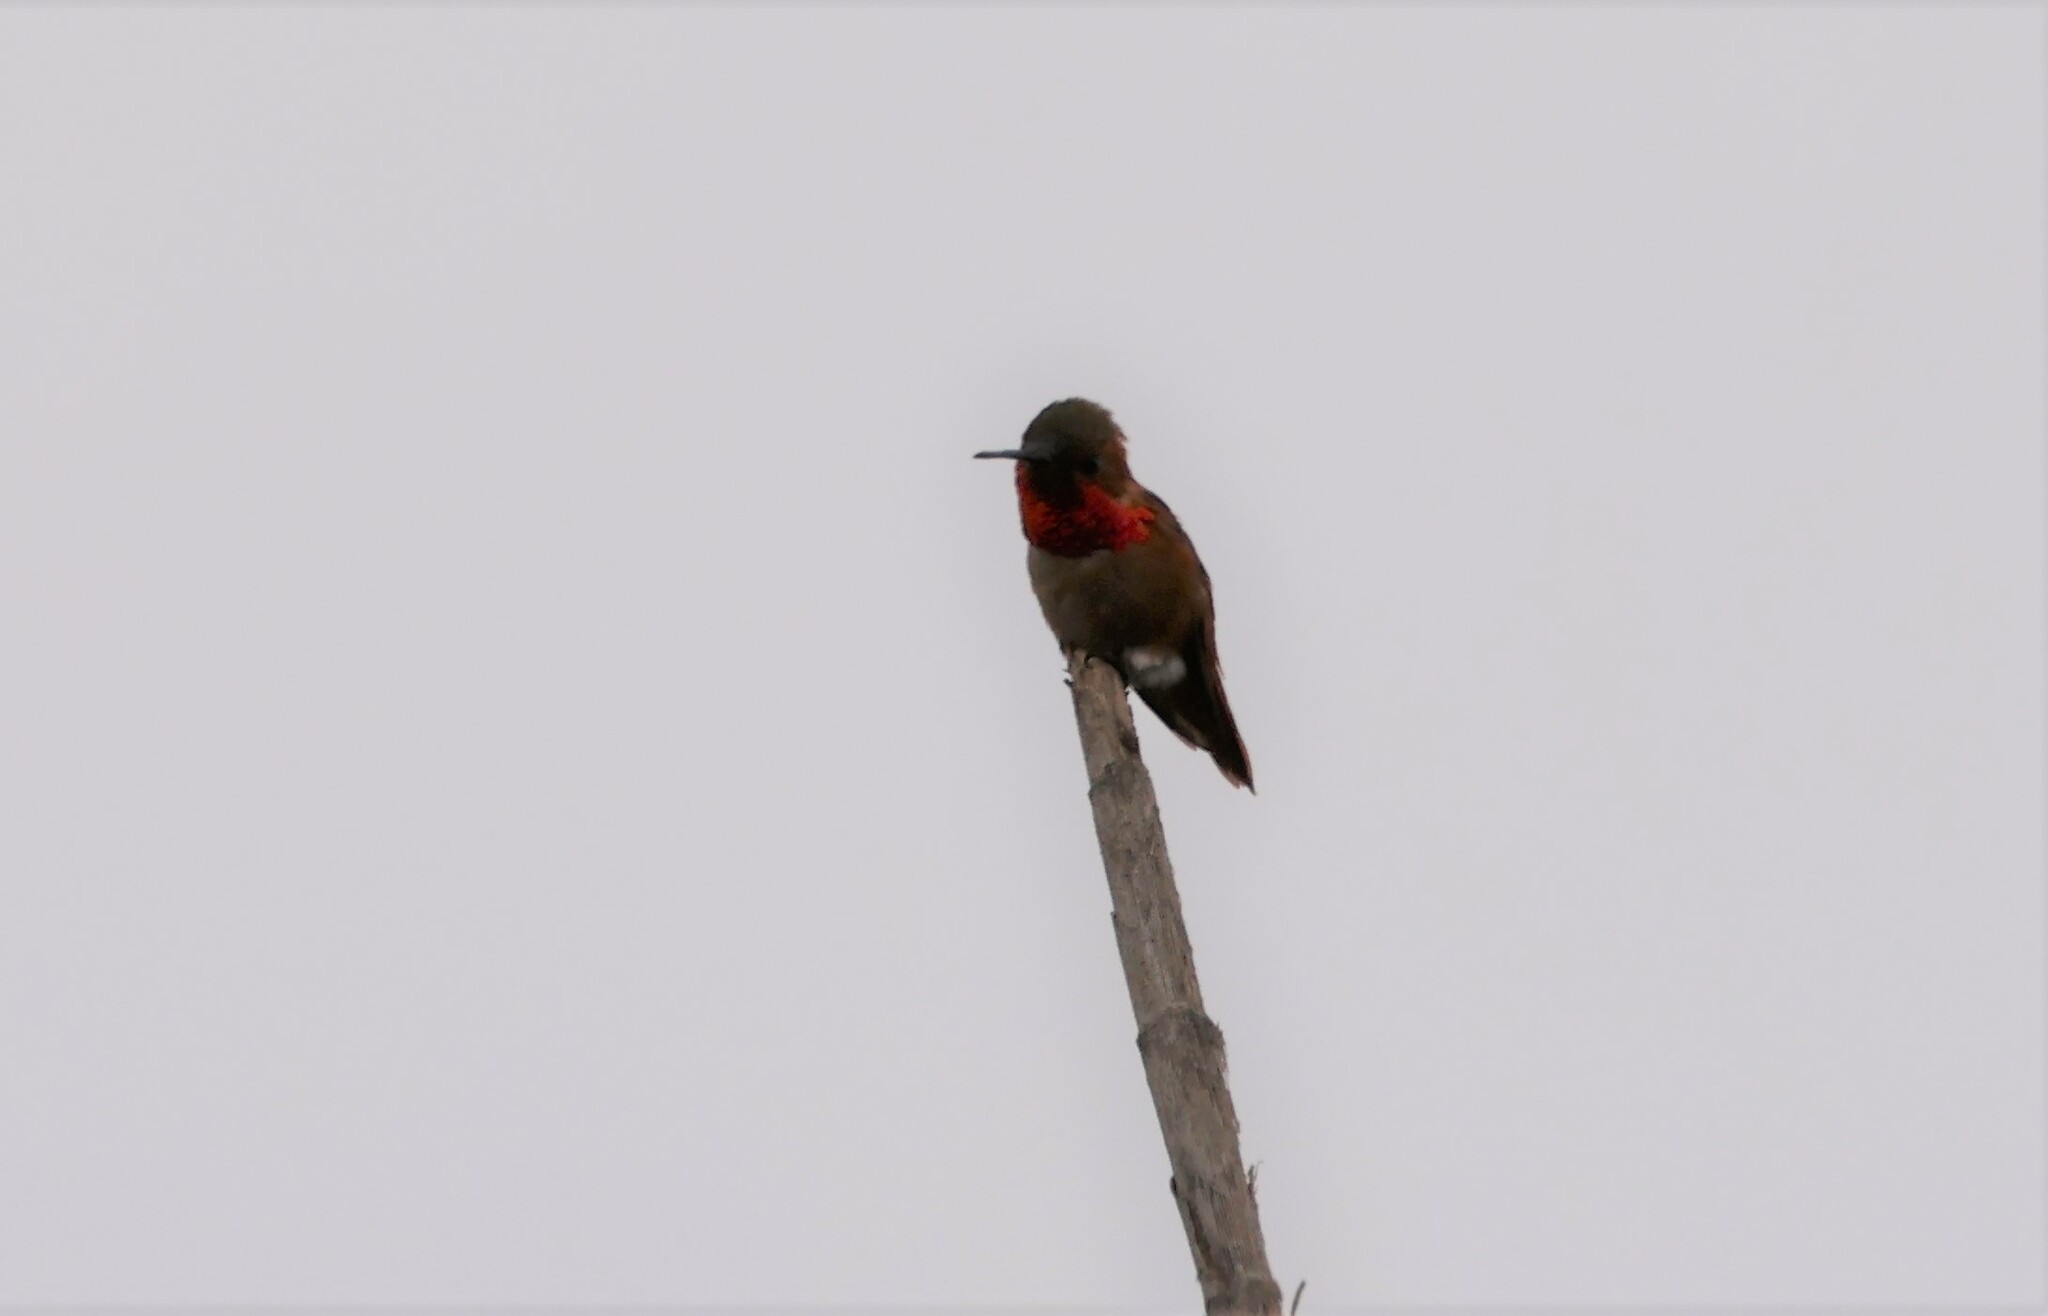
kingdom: Animalia
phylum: Chordata
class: Aves
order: Apodiformes
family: Trochilidae
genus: Selasphorus
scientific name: Selasphorus sasin
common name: Allen's hummingbird
